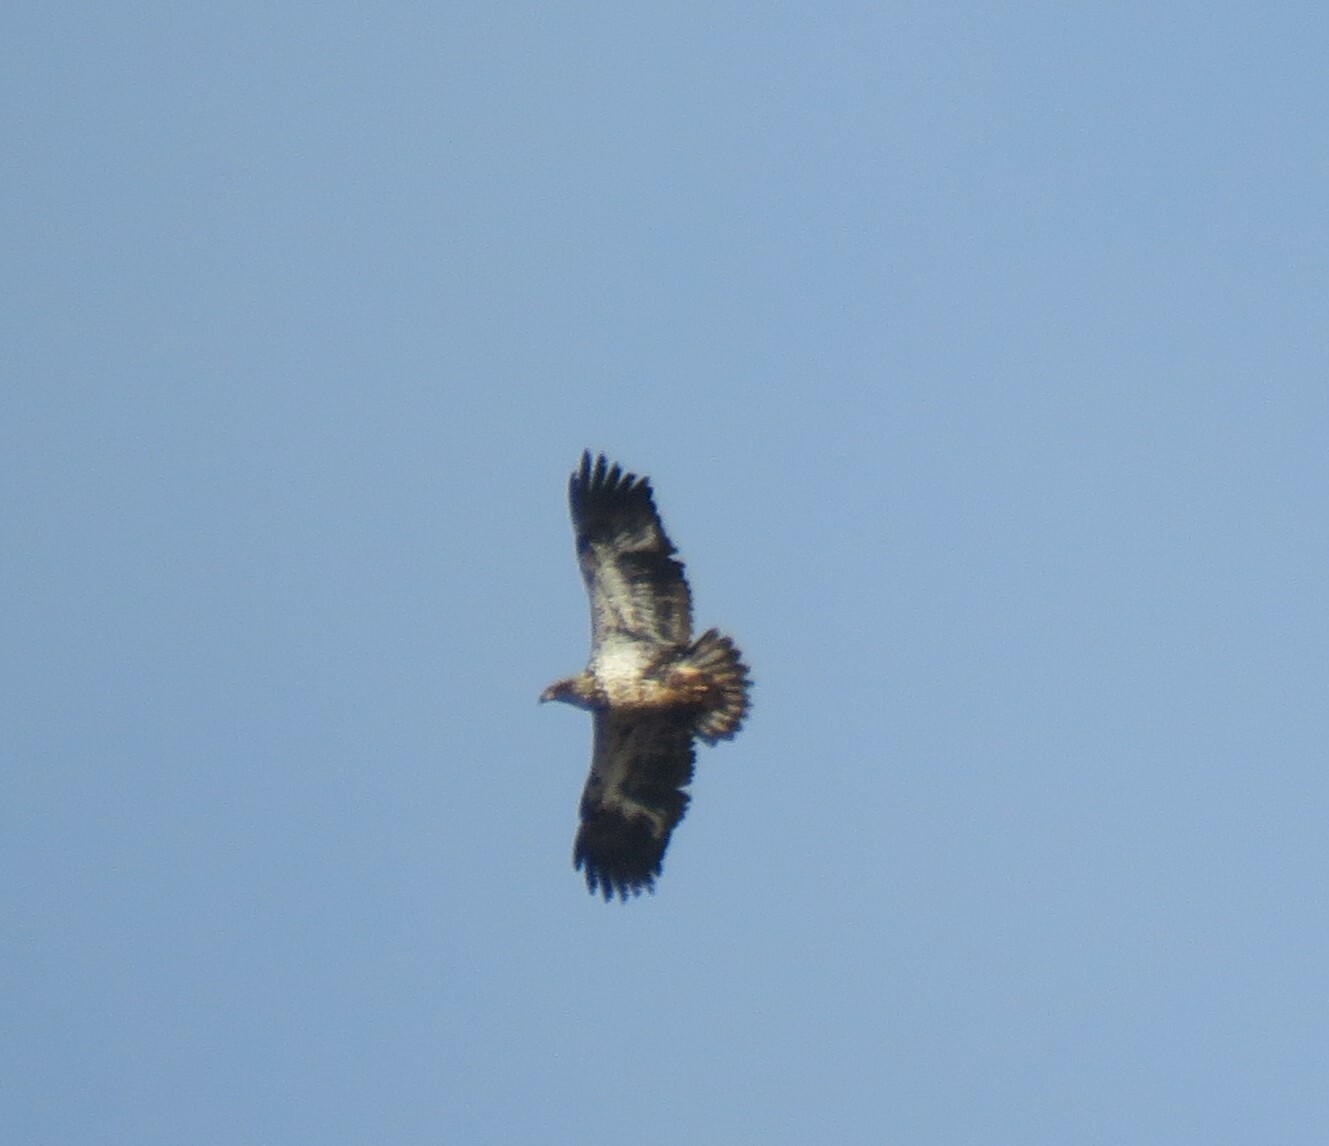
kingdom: Animalia
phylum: Chordata
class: Aves
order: Accipitriformes
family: Accipitridae
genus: Haliaeetus
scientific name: Haliaeetus leucocephalus
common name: Bald eagle
